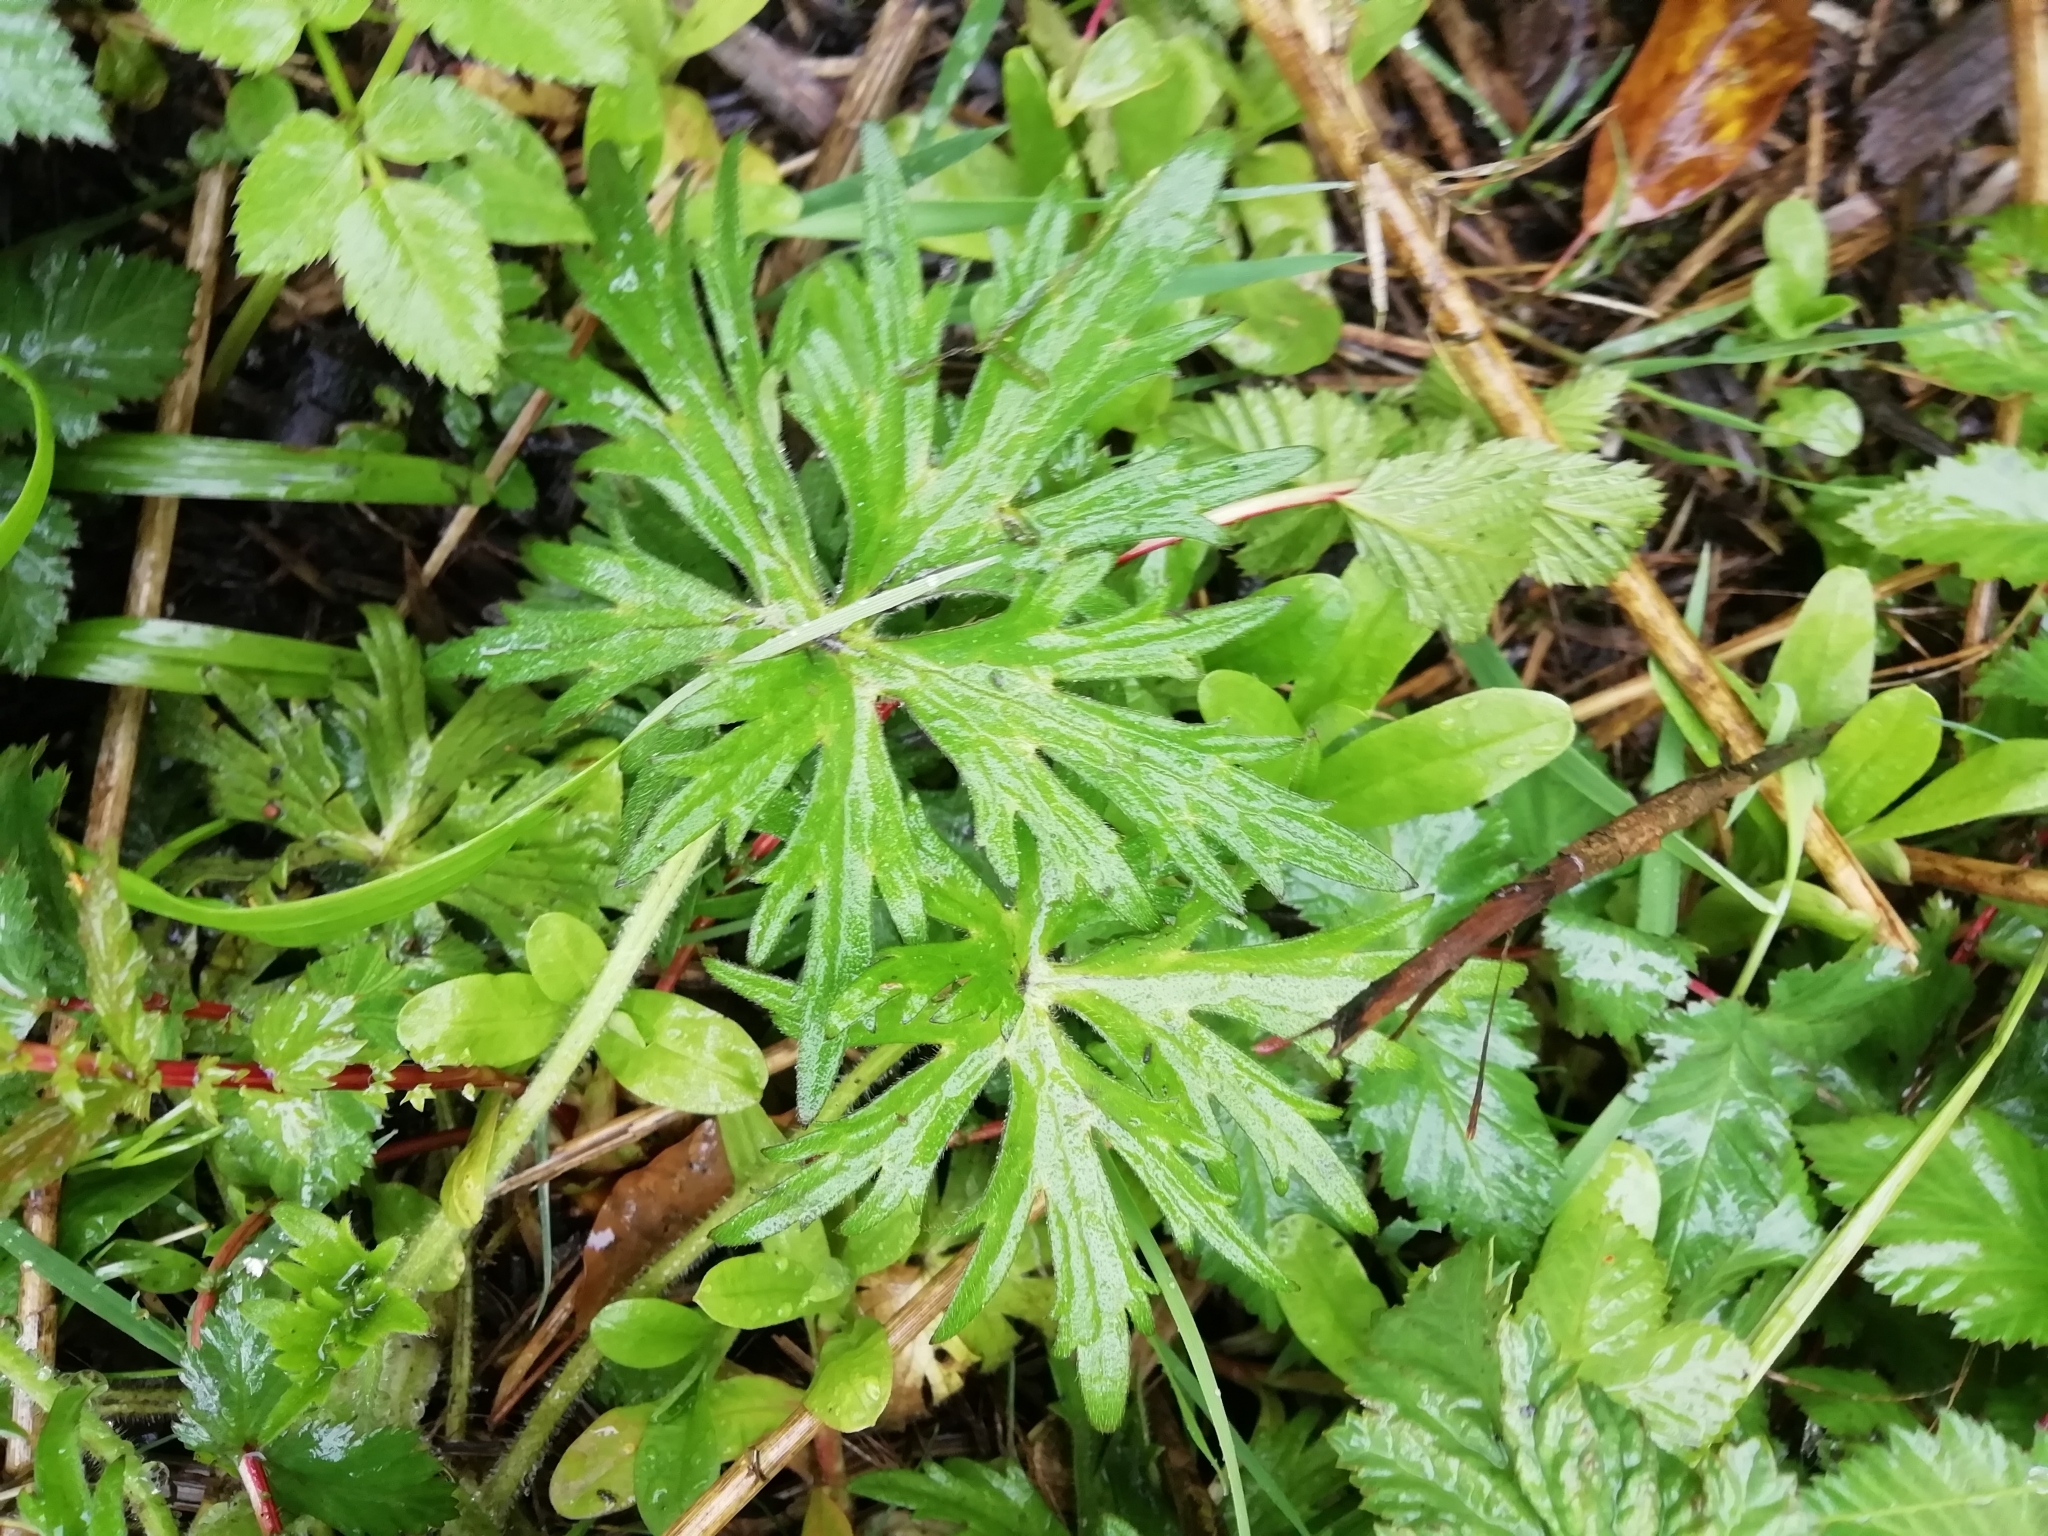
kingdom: Plantae
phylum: Tracheophyta
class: Magnoliopsida
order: Ranunculales
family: Ranunculaceae
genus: Ranunculus
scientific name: Ranunculus acris
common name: Meadow buttercup
